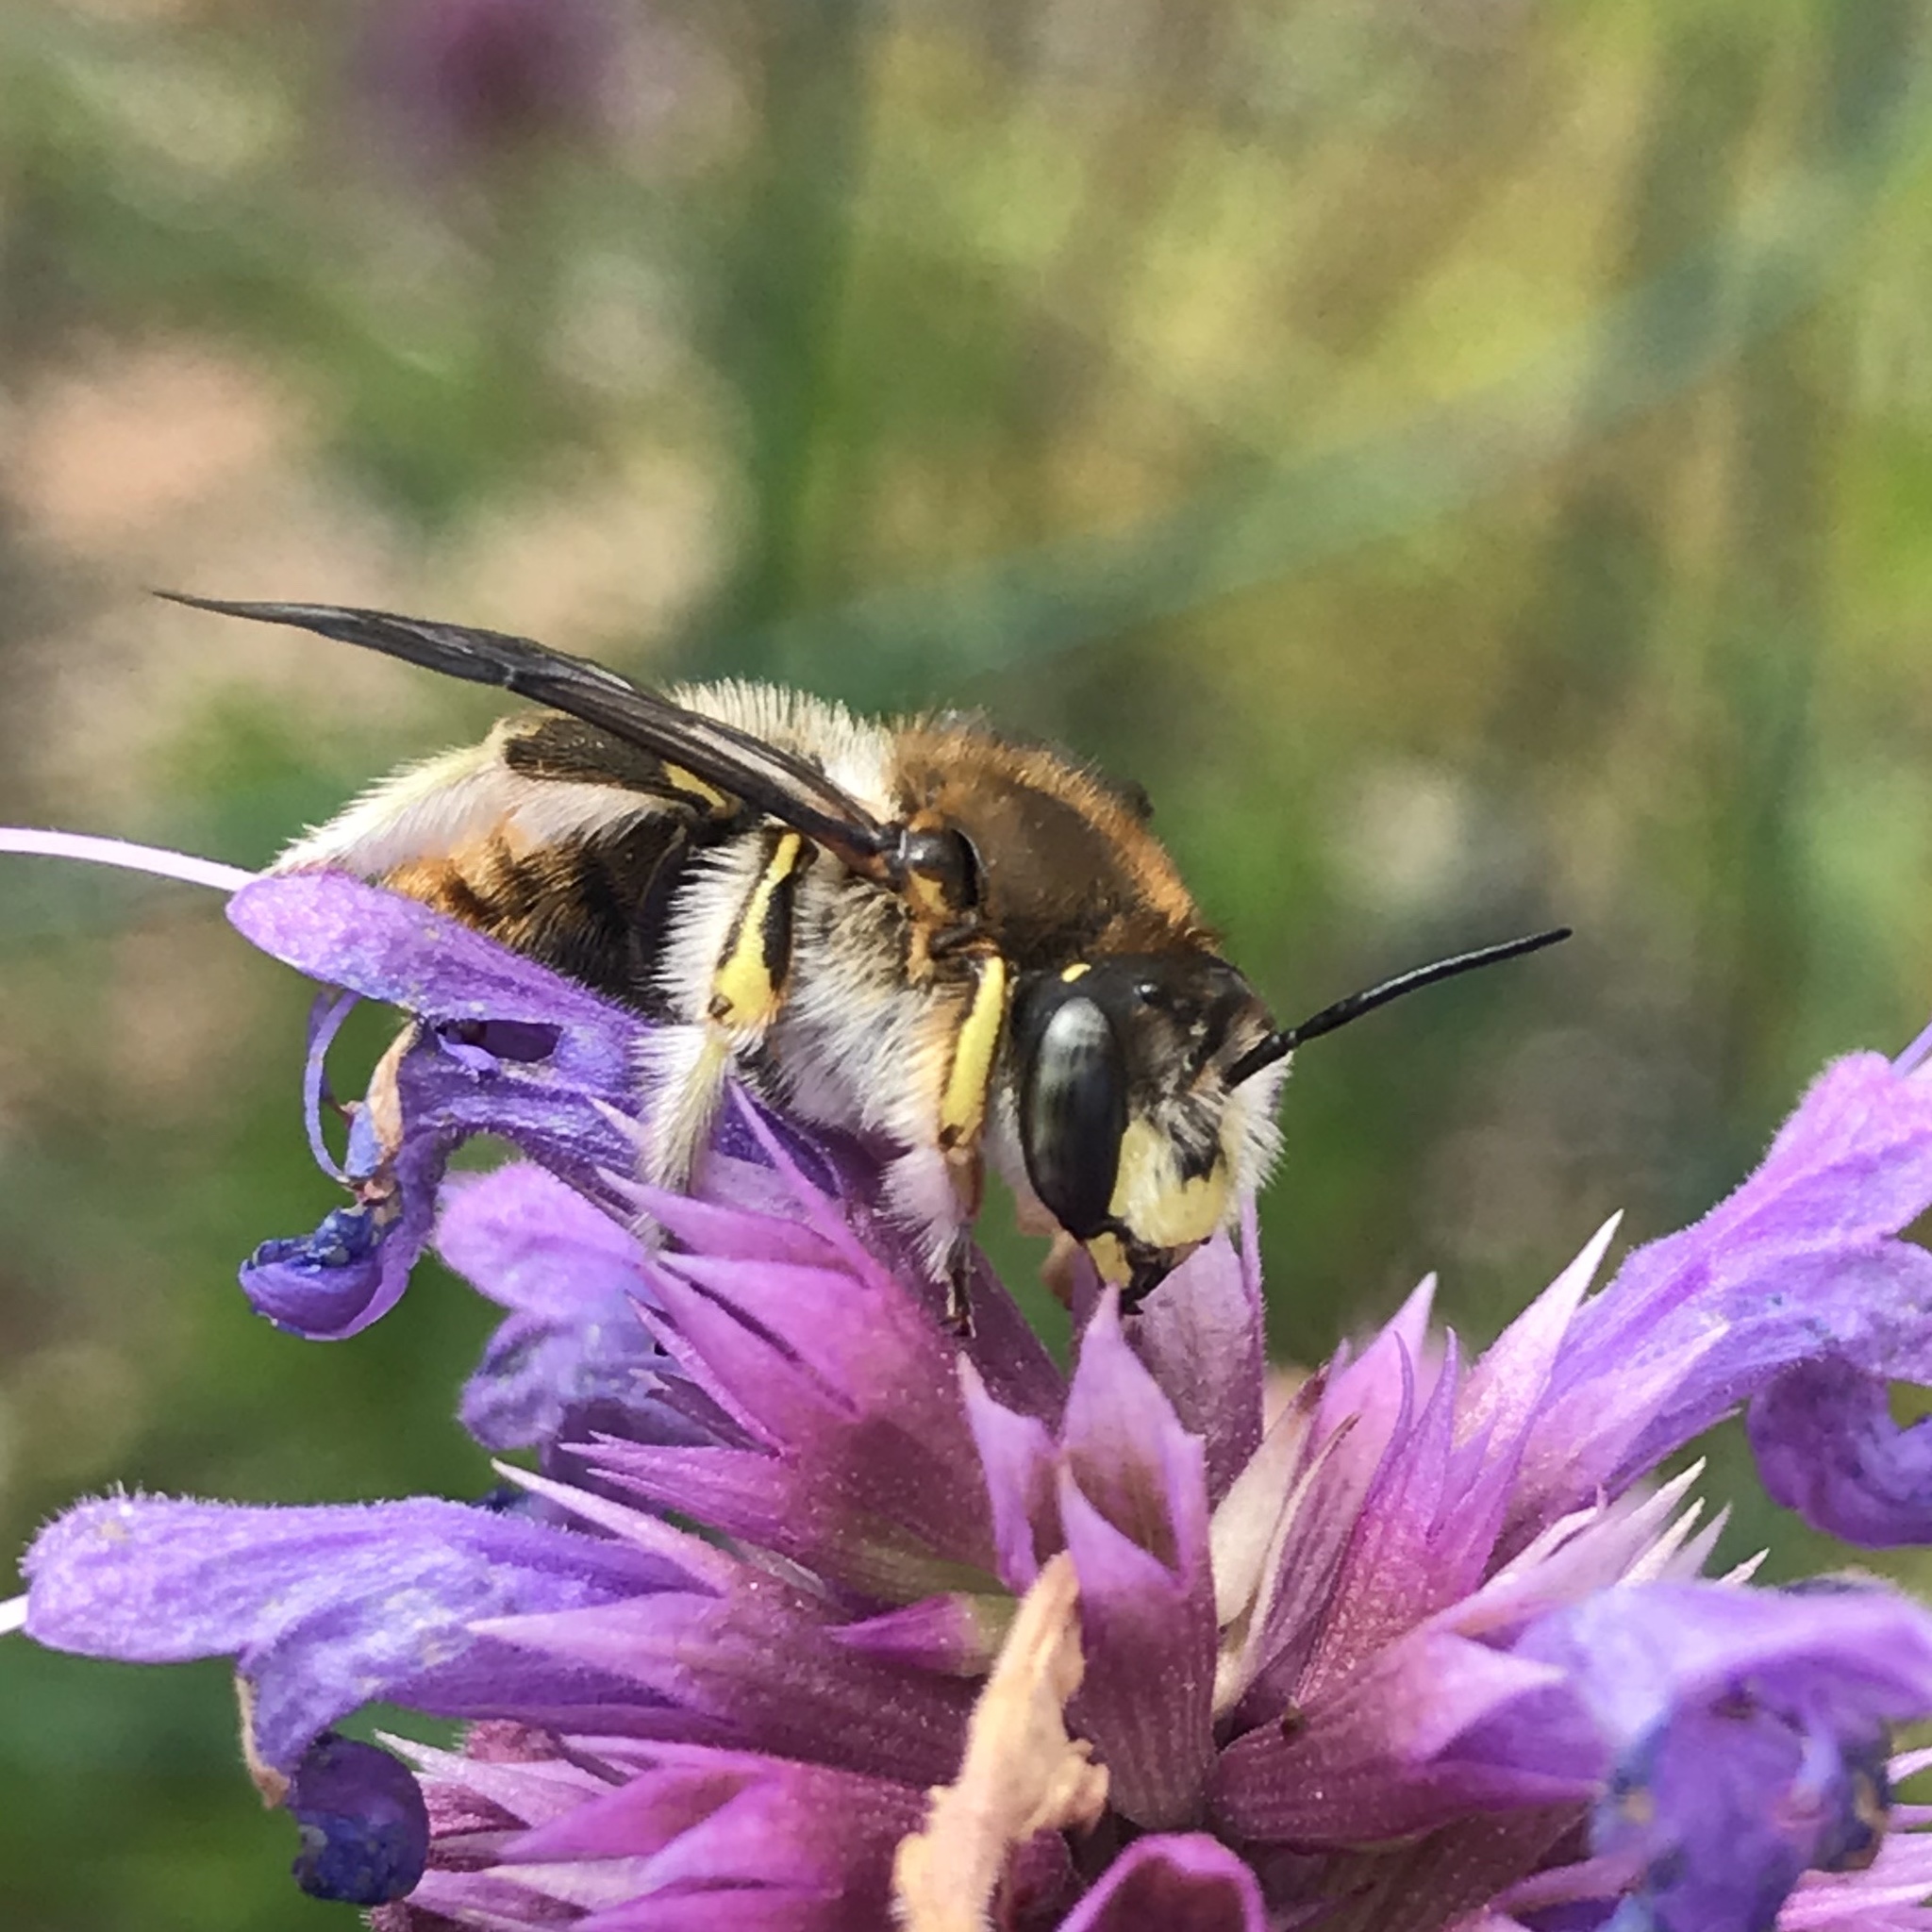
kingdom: Animalia
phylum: Arthropoda
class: Insecta
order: Hymenoptera
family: Megachilidae
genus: Anthidium
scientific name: Anthidium manicatum
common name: Wool carder bee
